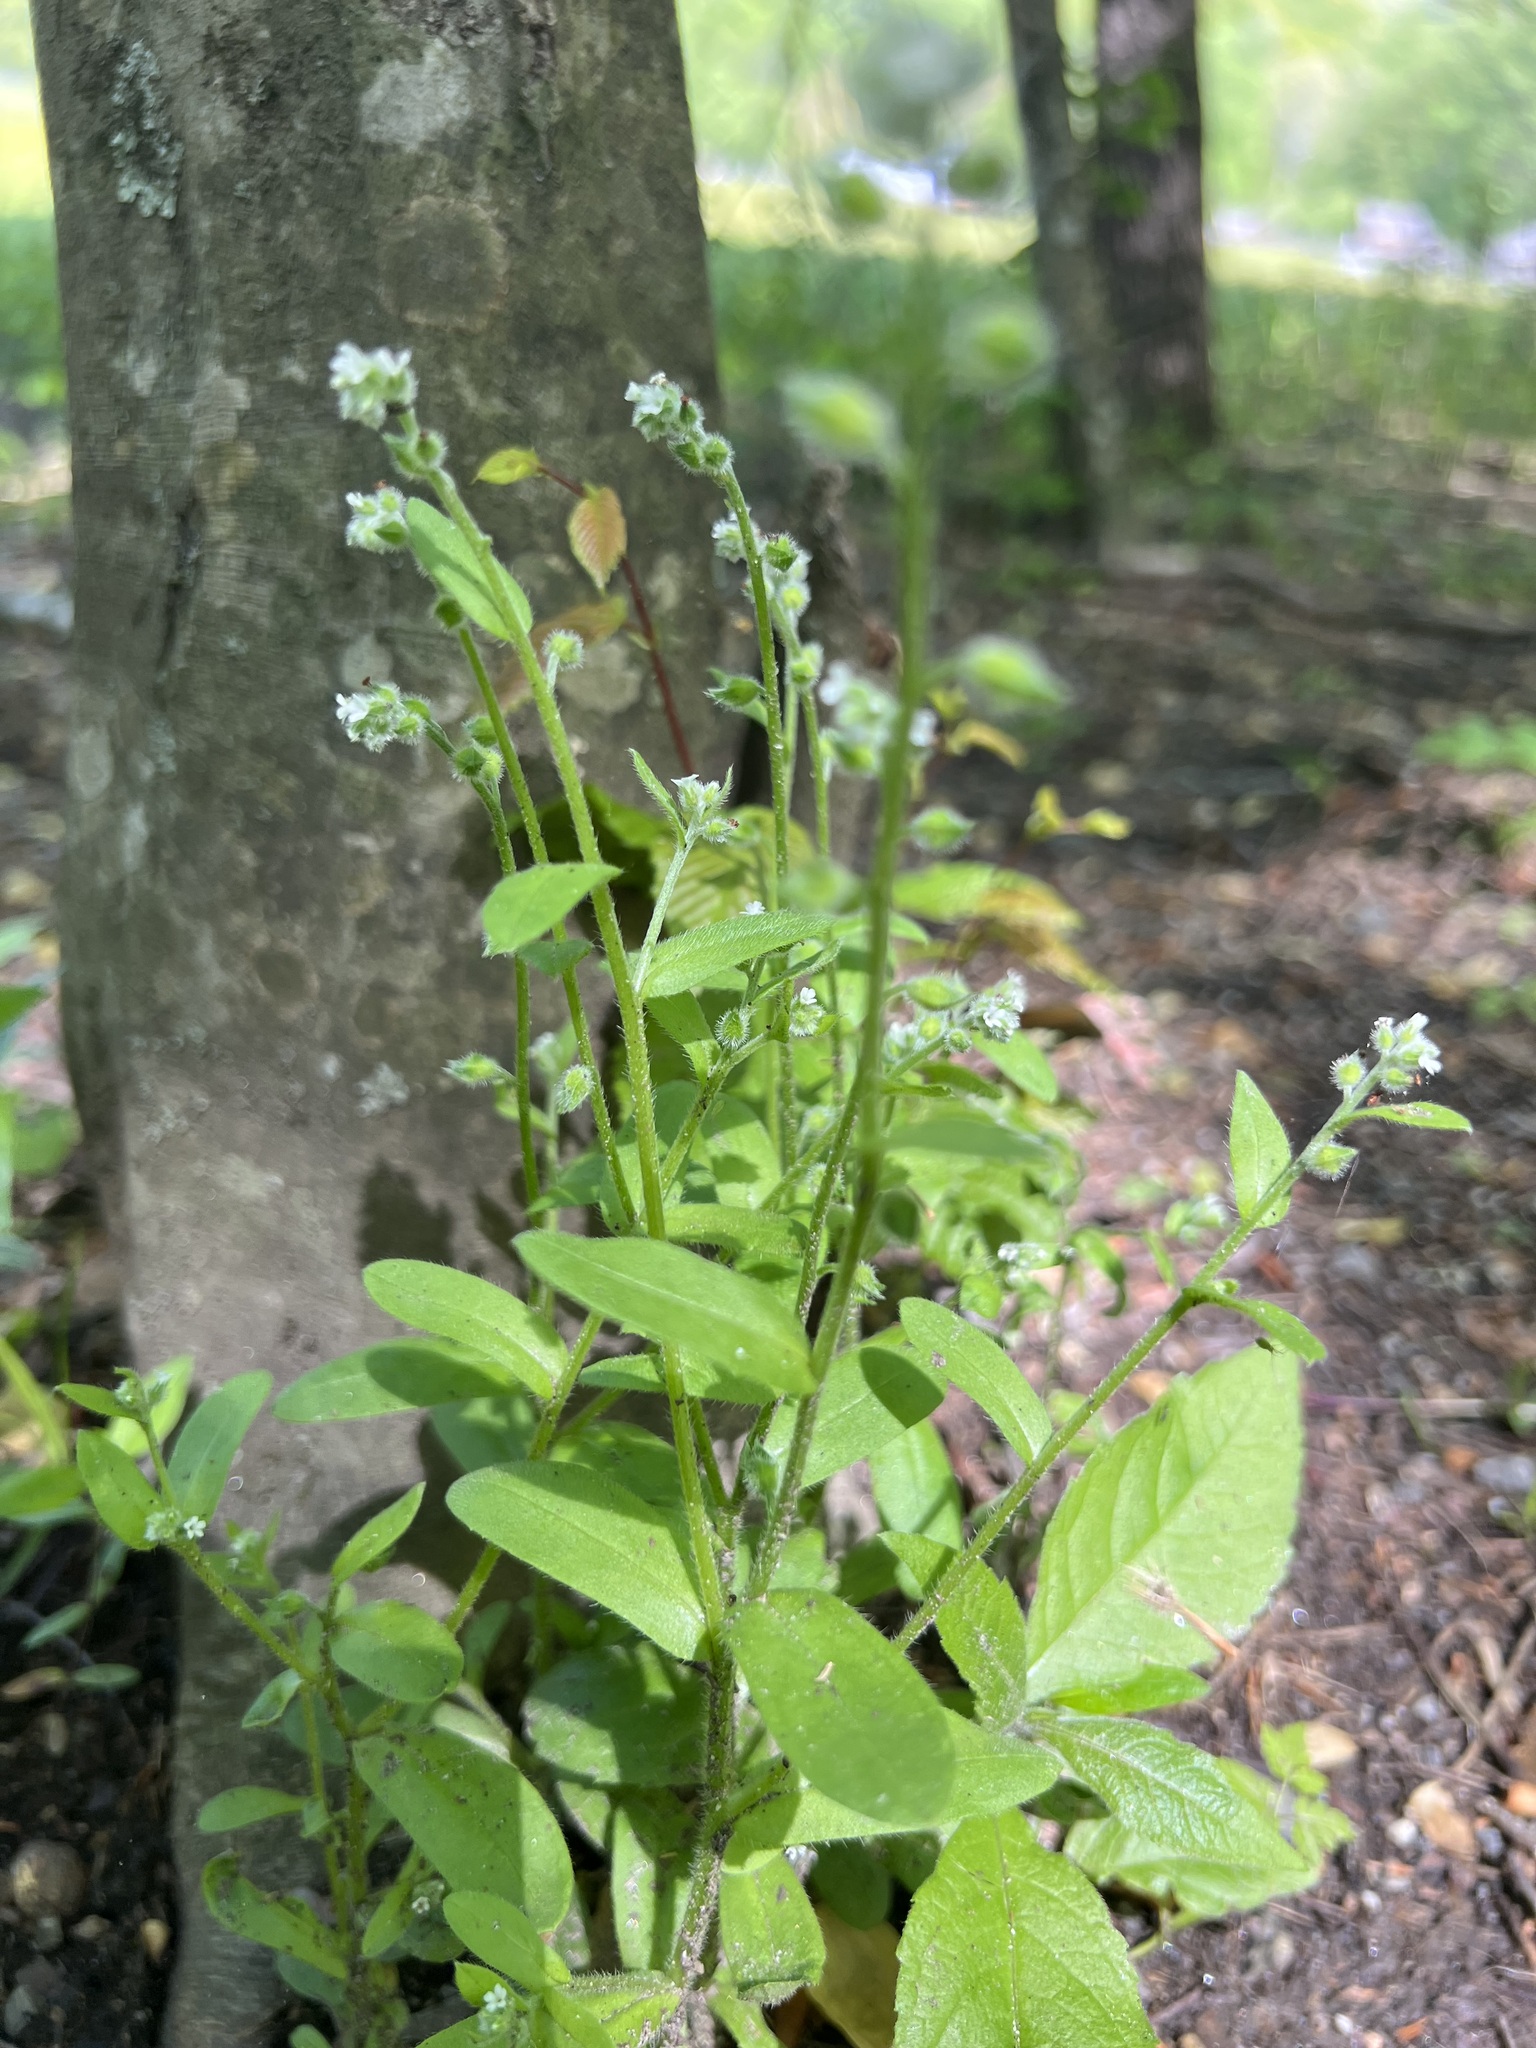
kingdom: Plantae
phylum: Tracheophyta
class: Magnoliopsida
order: Boraginales
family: Boraginaceae
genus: Myosotis
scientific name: Myosotis macrosperma
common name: Large-seed forget-me-not
